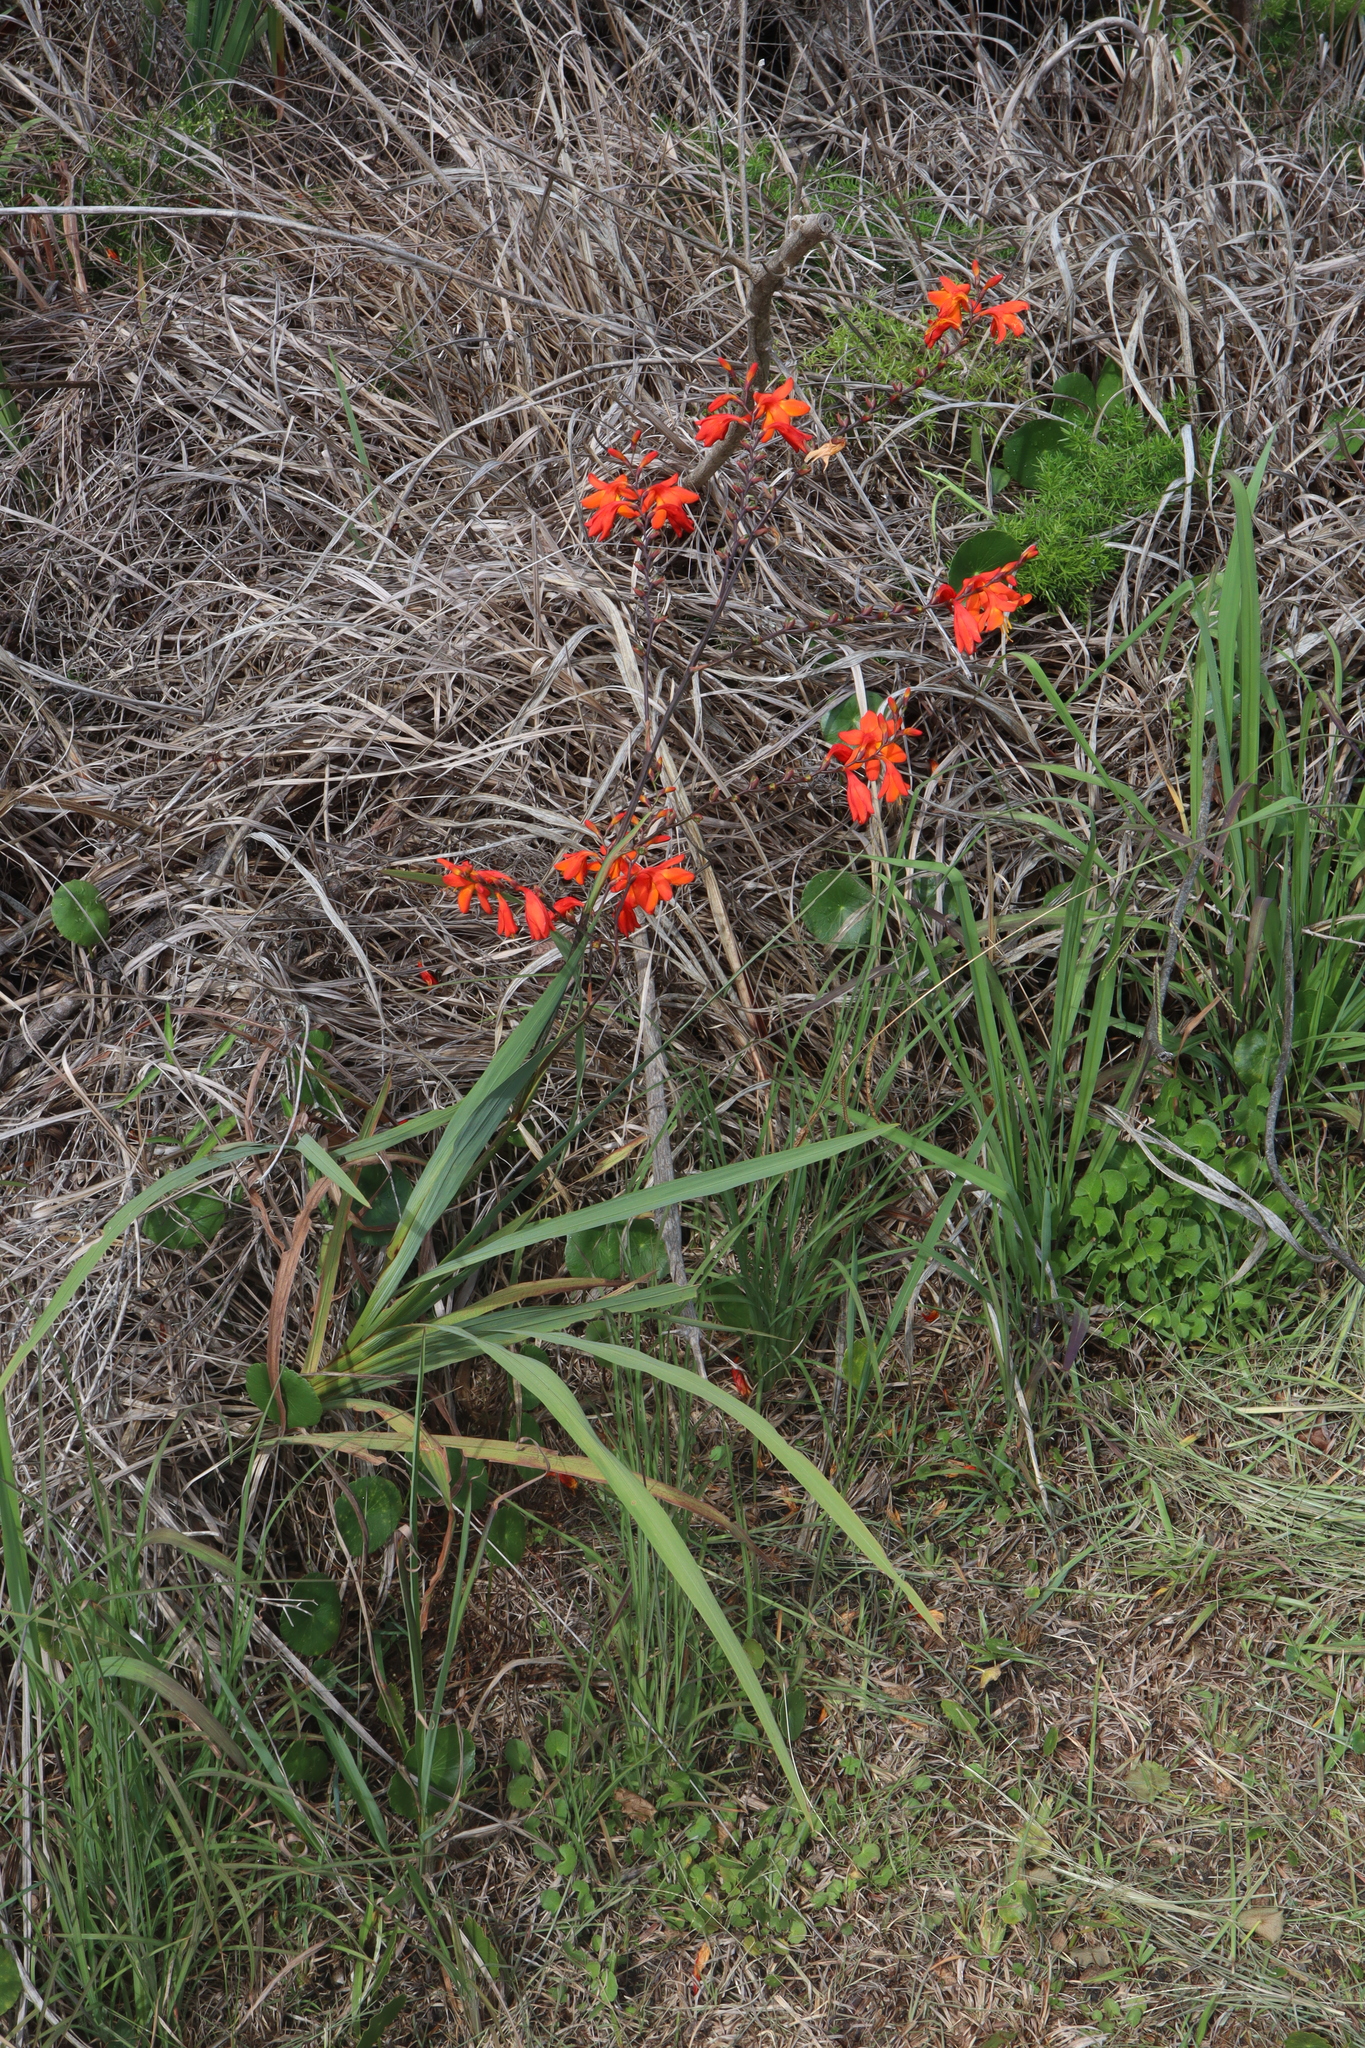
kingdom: Plantae
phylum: Tracheophyta
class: Liliopsida
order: Asparagales
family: Iridaceae
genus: Crocosmia
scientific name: Crocosmia crocosmiiflora
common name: Montbretia
